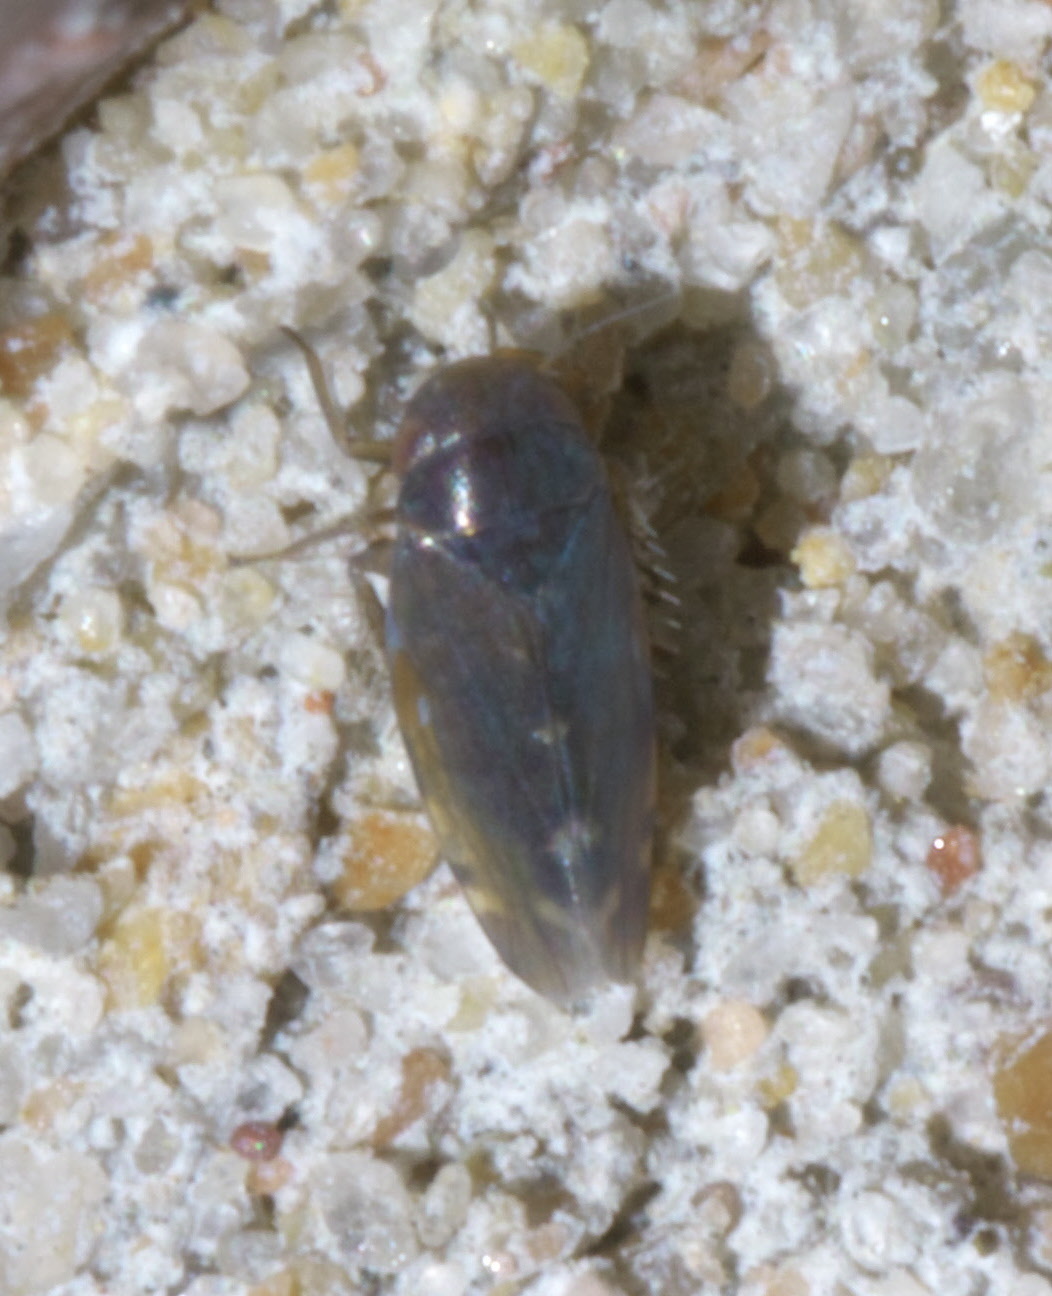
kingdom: Animalia
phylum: Arthropoda
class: Insecta
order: Hemiptera
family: Cicadellidae
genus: Xestocephalus
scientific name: Xestocephalus brunneus
